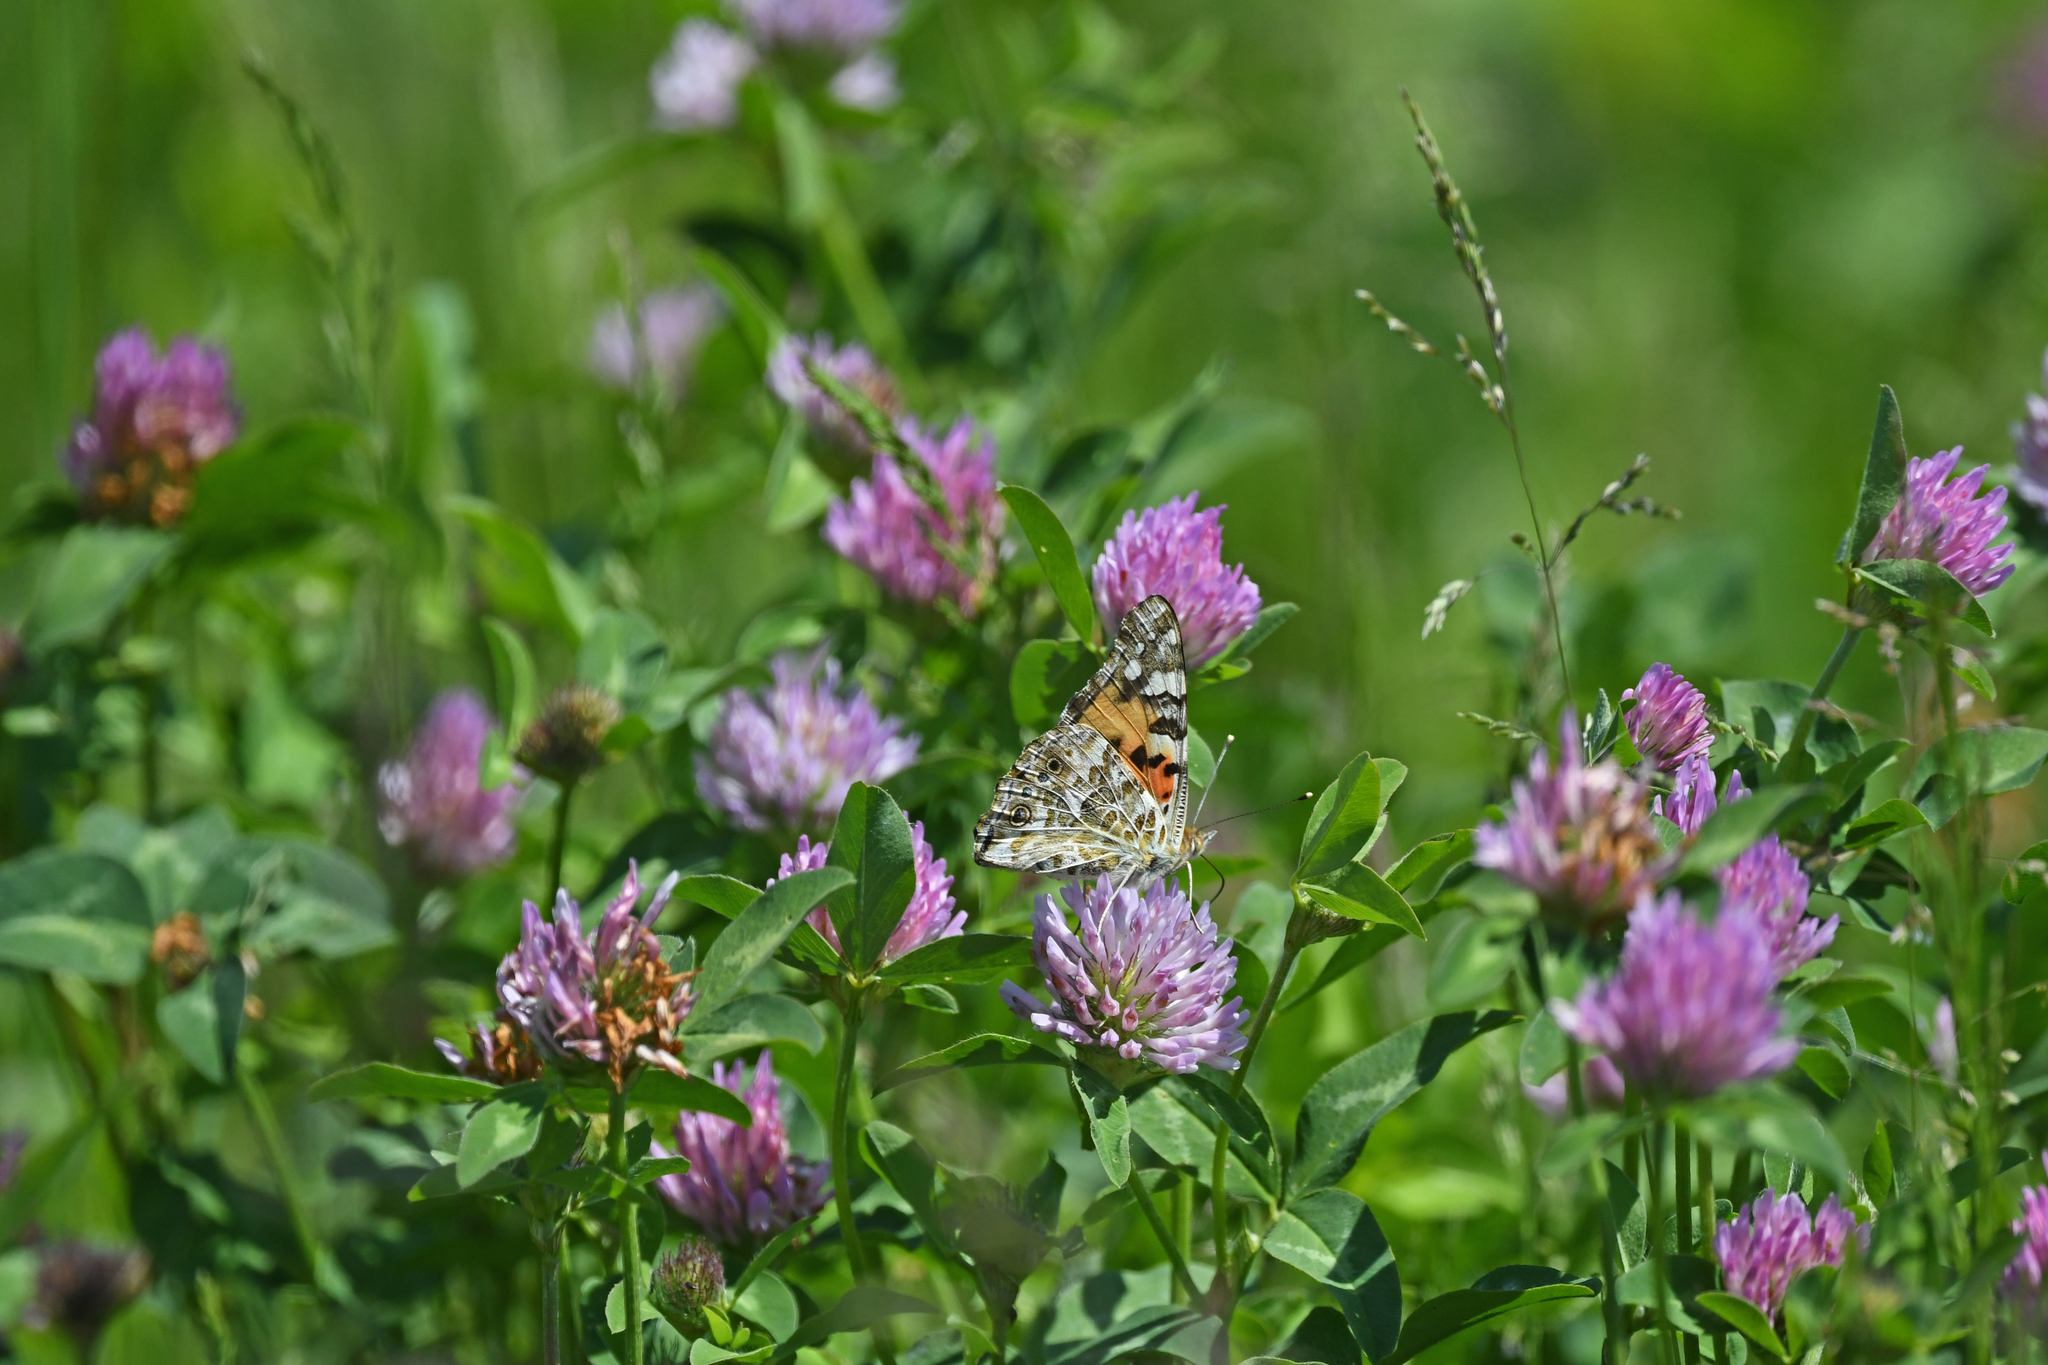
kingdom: Animalia
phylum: Arthropoda
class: Insecta
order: Lepidoptera
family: Nymphalidae
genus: Vanessa
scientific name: Vanessa cardui
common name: Painted lady
